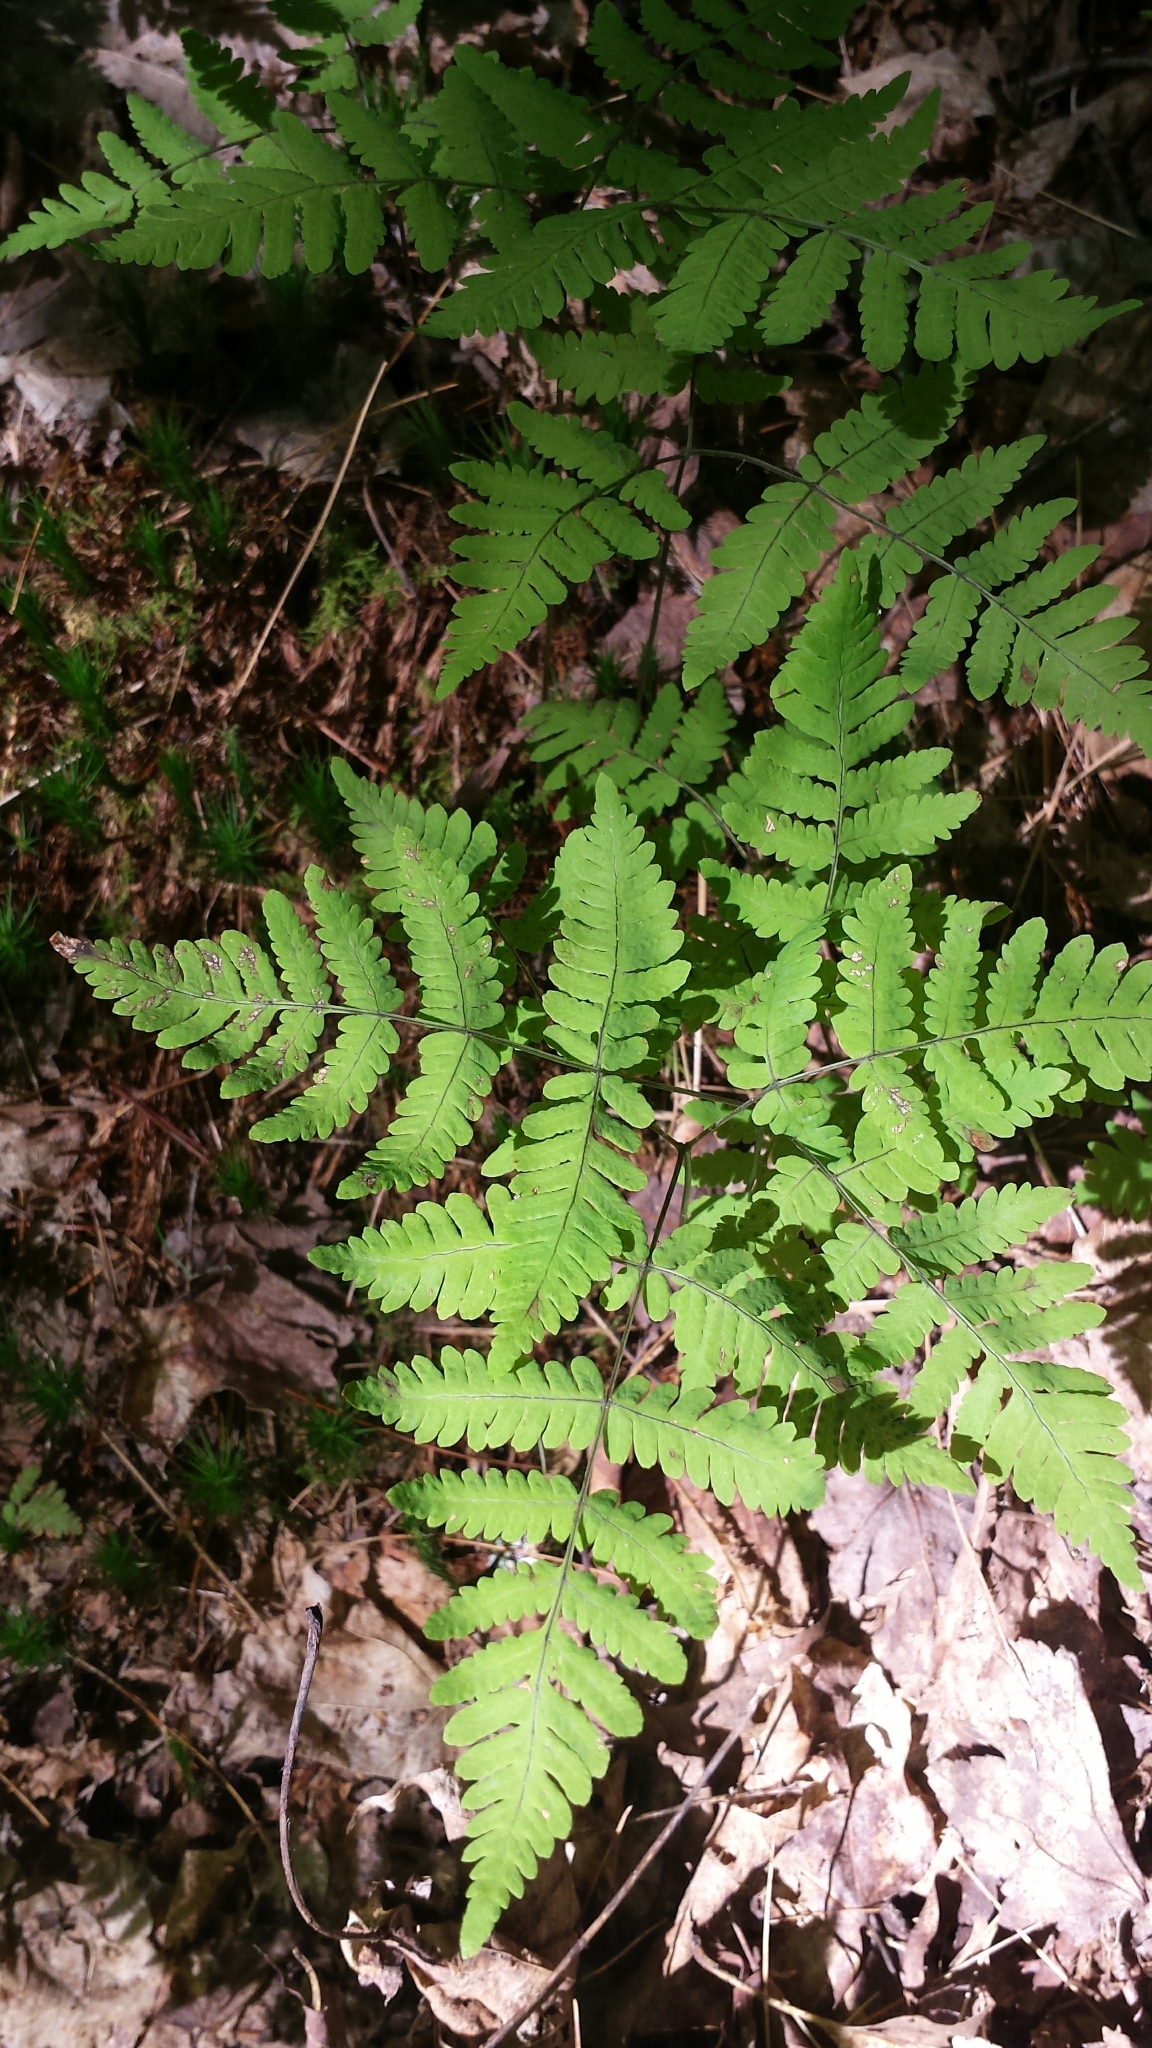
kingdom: Plantae
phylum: Tracheophyta
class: Polypodiopsida
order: Polypodiales
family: Cystopteridaceae
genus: Gymnocarpium
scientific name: Gymnocarpium dryopteris
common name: Oak fern
